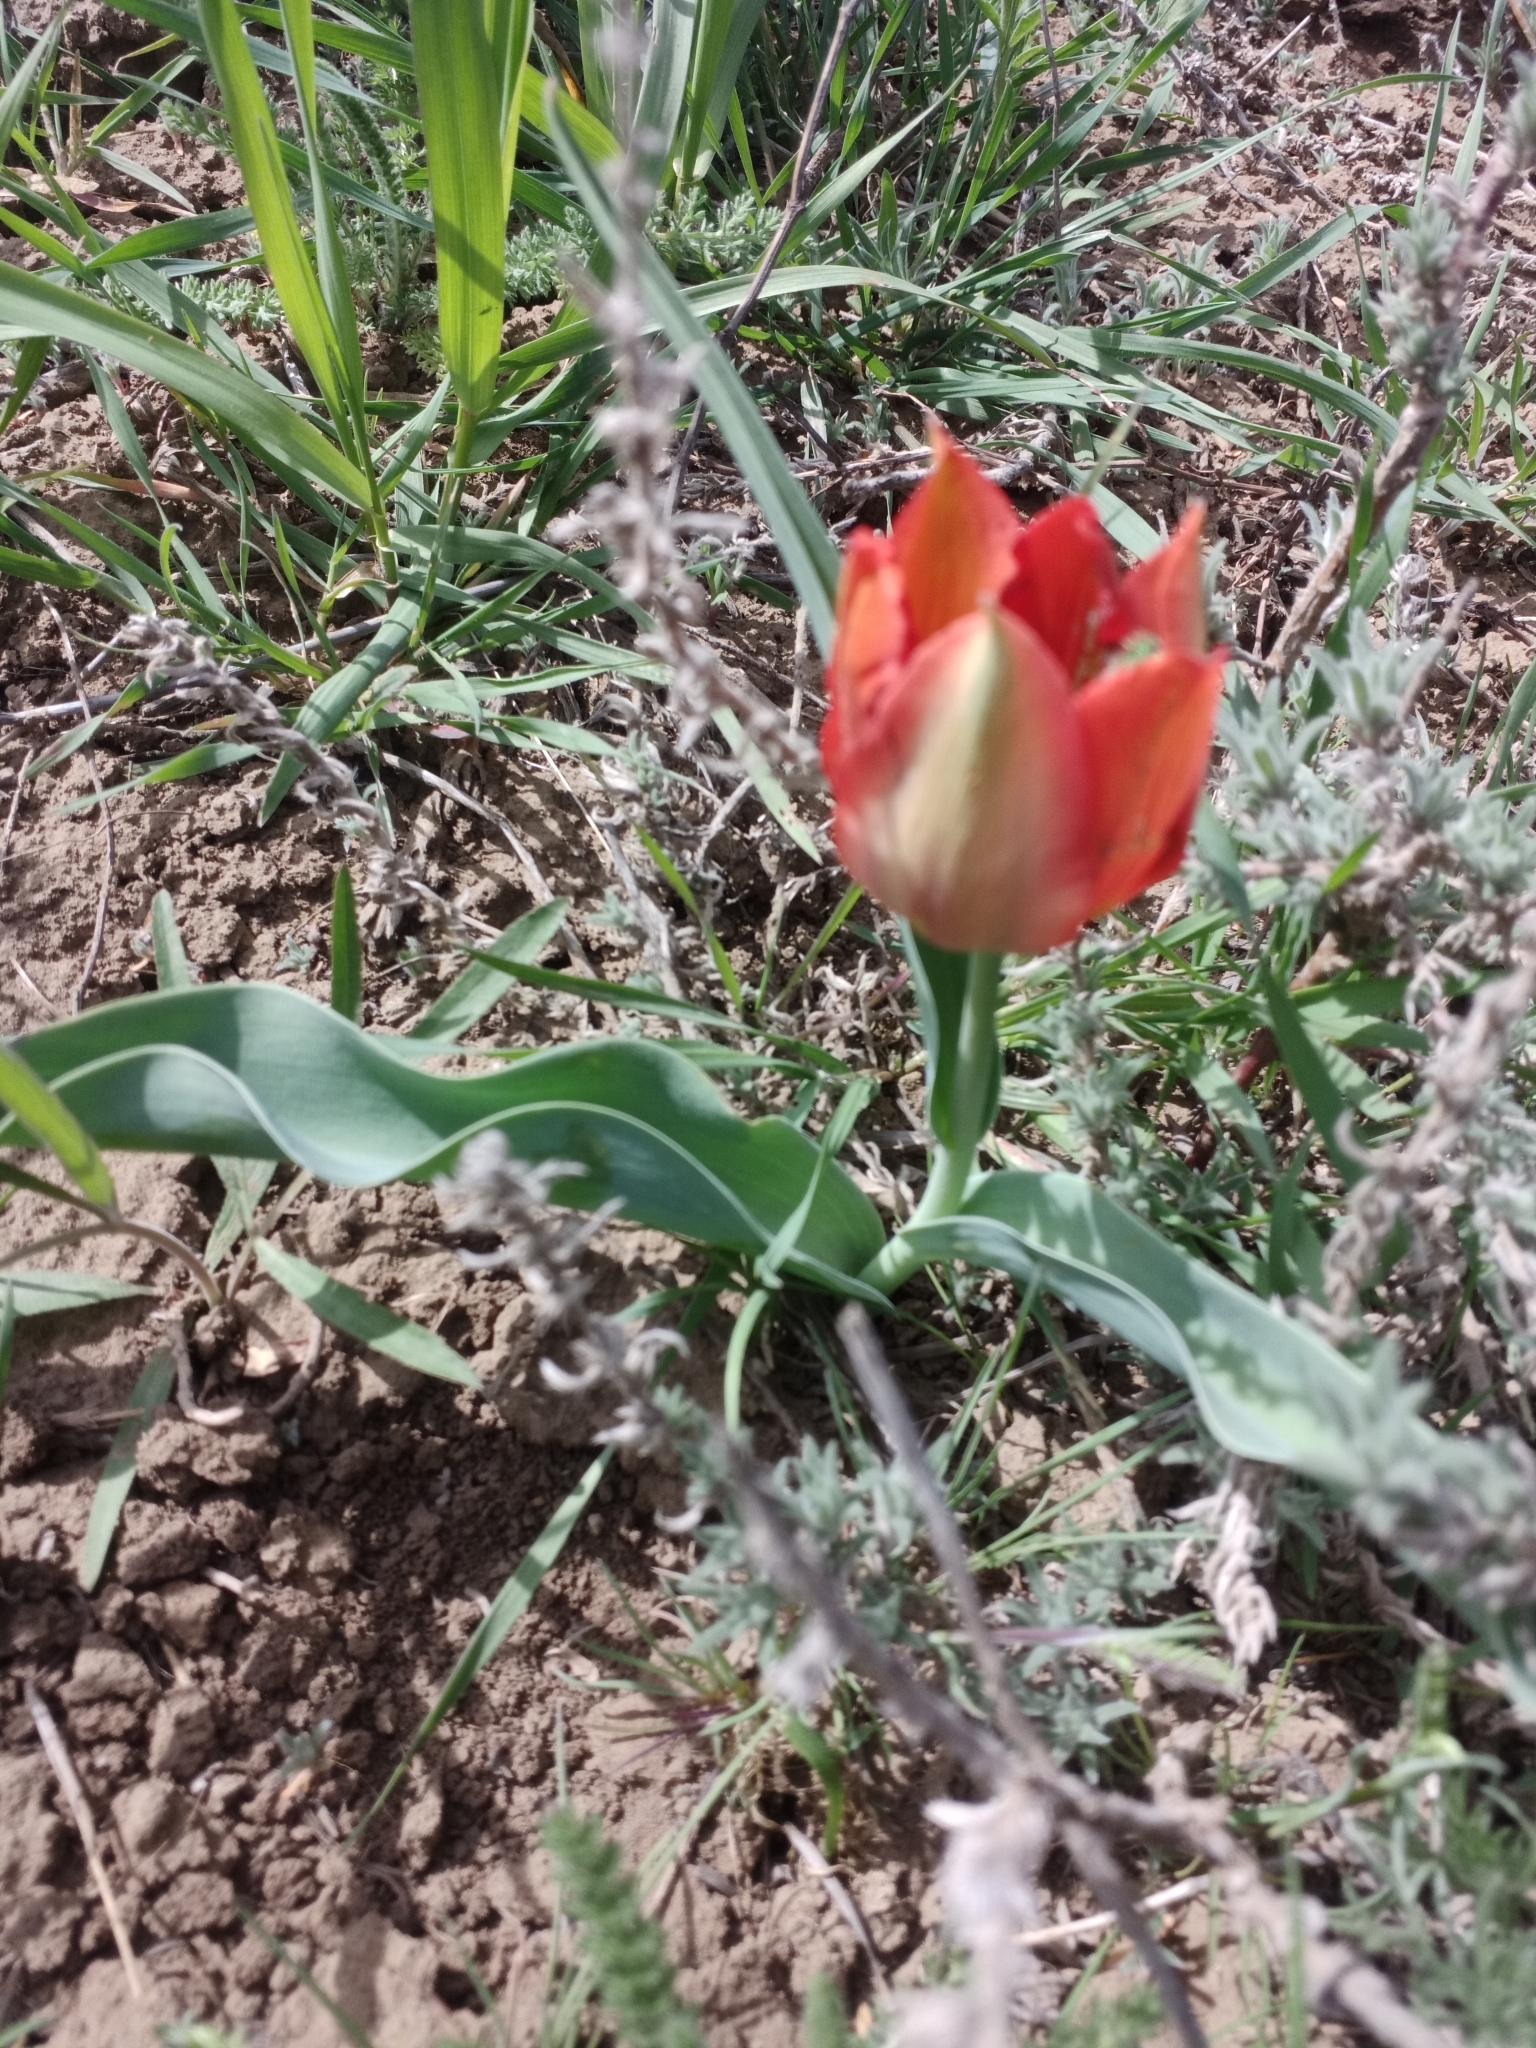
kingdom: Plantae
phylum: Tracheophyta
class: Liliopsida
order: Liliales
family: Liliaceae
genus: Tulipa
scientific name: Tulipa suaveolens
